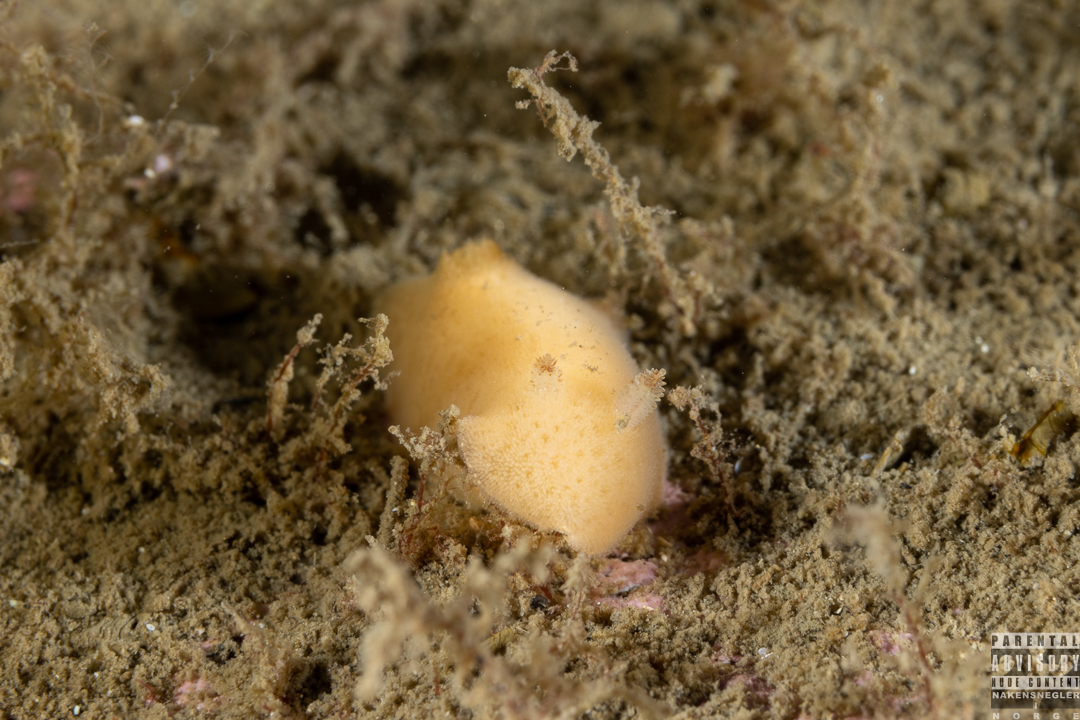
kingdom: Animalia
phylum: Mollusca
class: Gastropoda
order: Nudibranchia
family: Discodorididae
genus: Jorunna
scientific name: Jorunna tomentosa
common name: Grey sea slug
